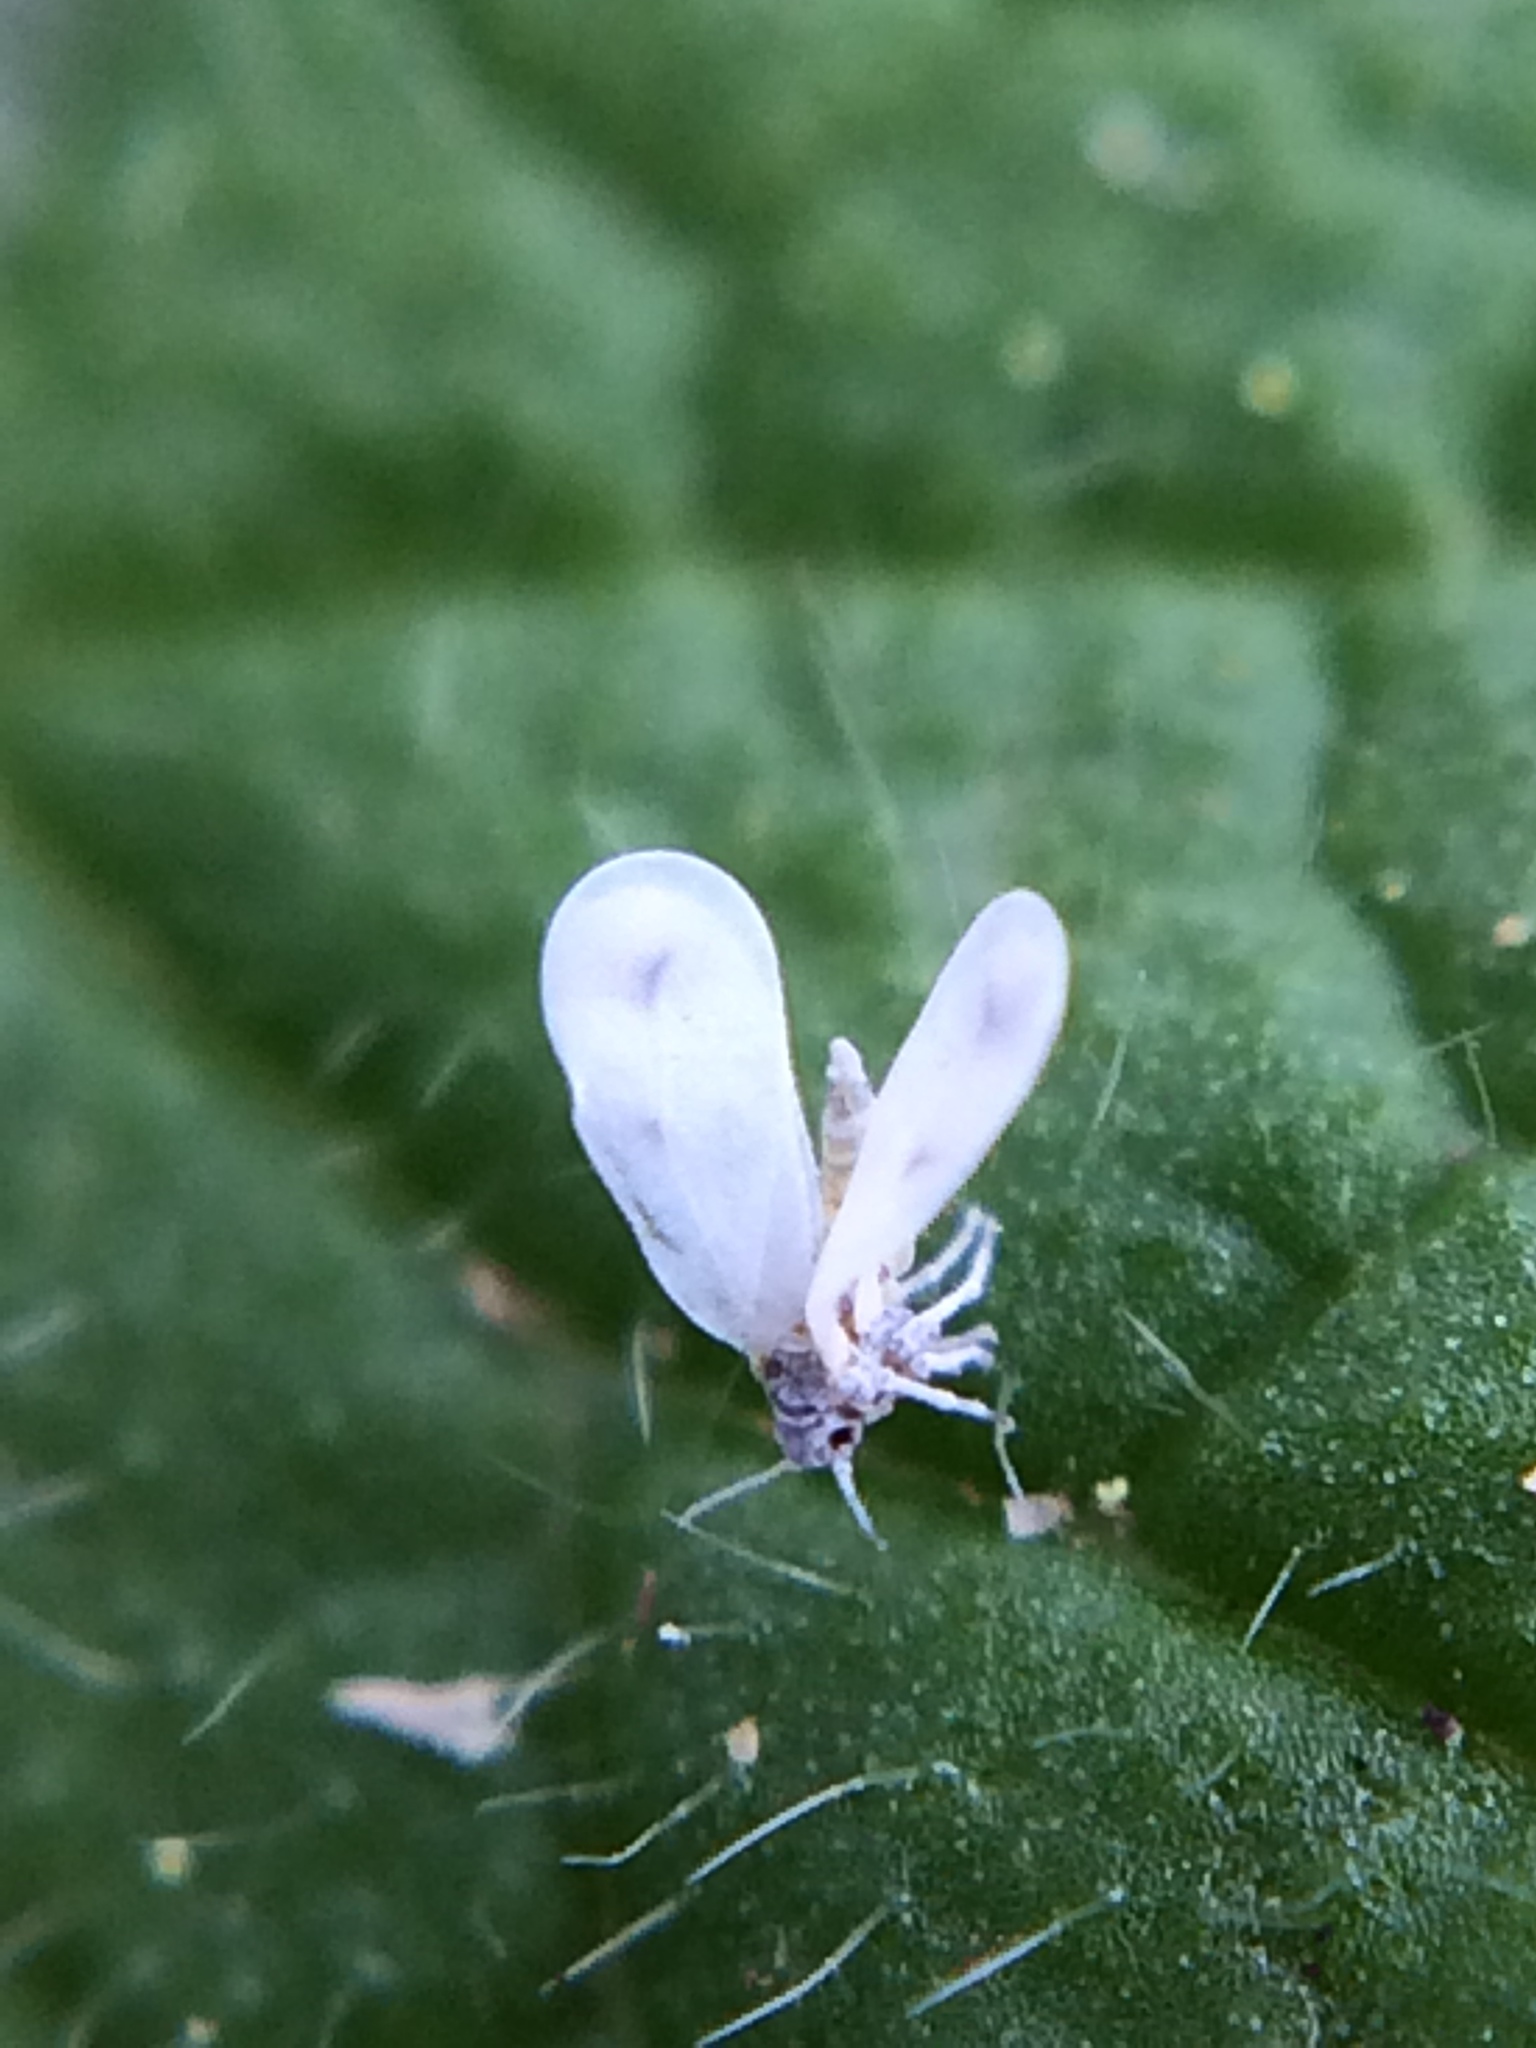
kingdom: Animalia
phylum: Arthropoda
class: Insecta
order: Hemiptera
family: Aleyrodidae
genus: Aleyrodes
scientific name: Aleyrodes proletella
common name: Cabbage whitefly
